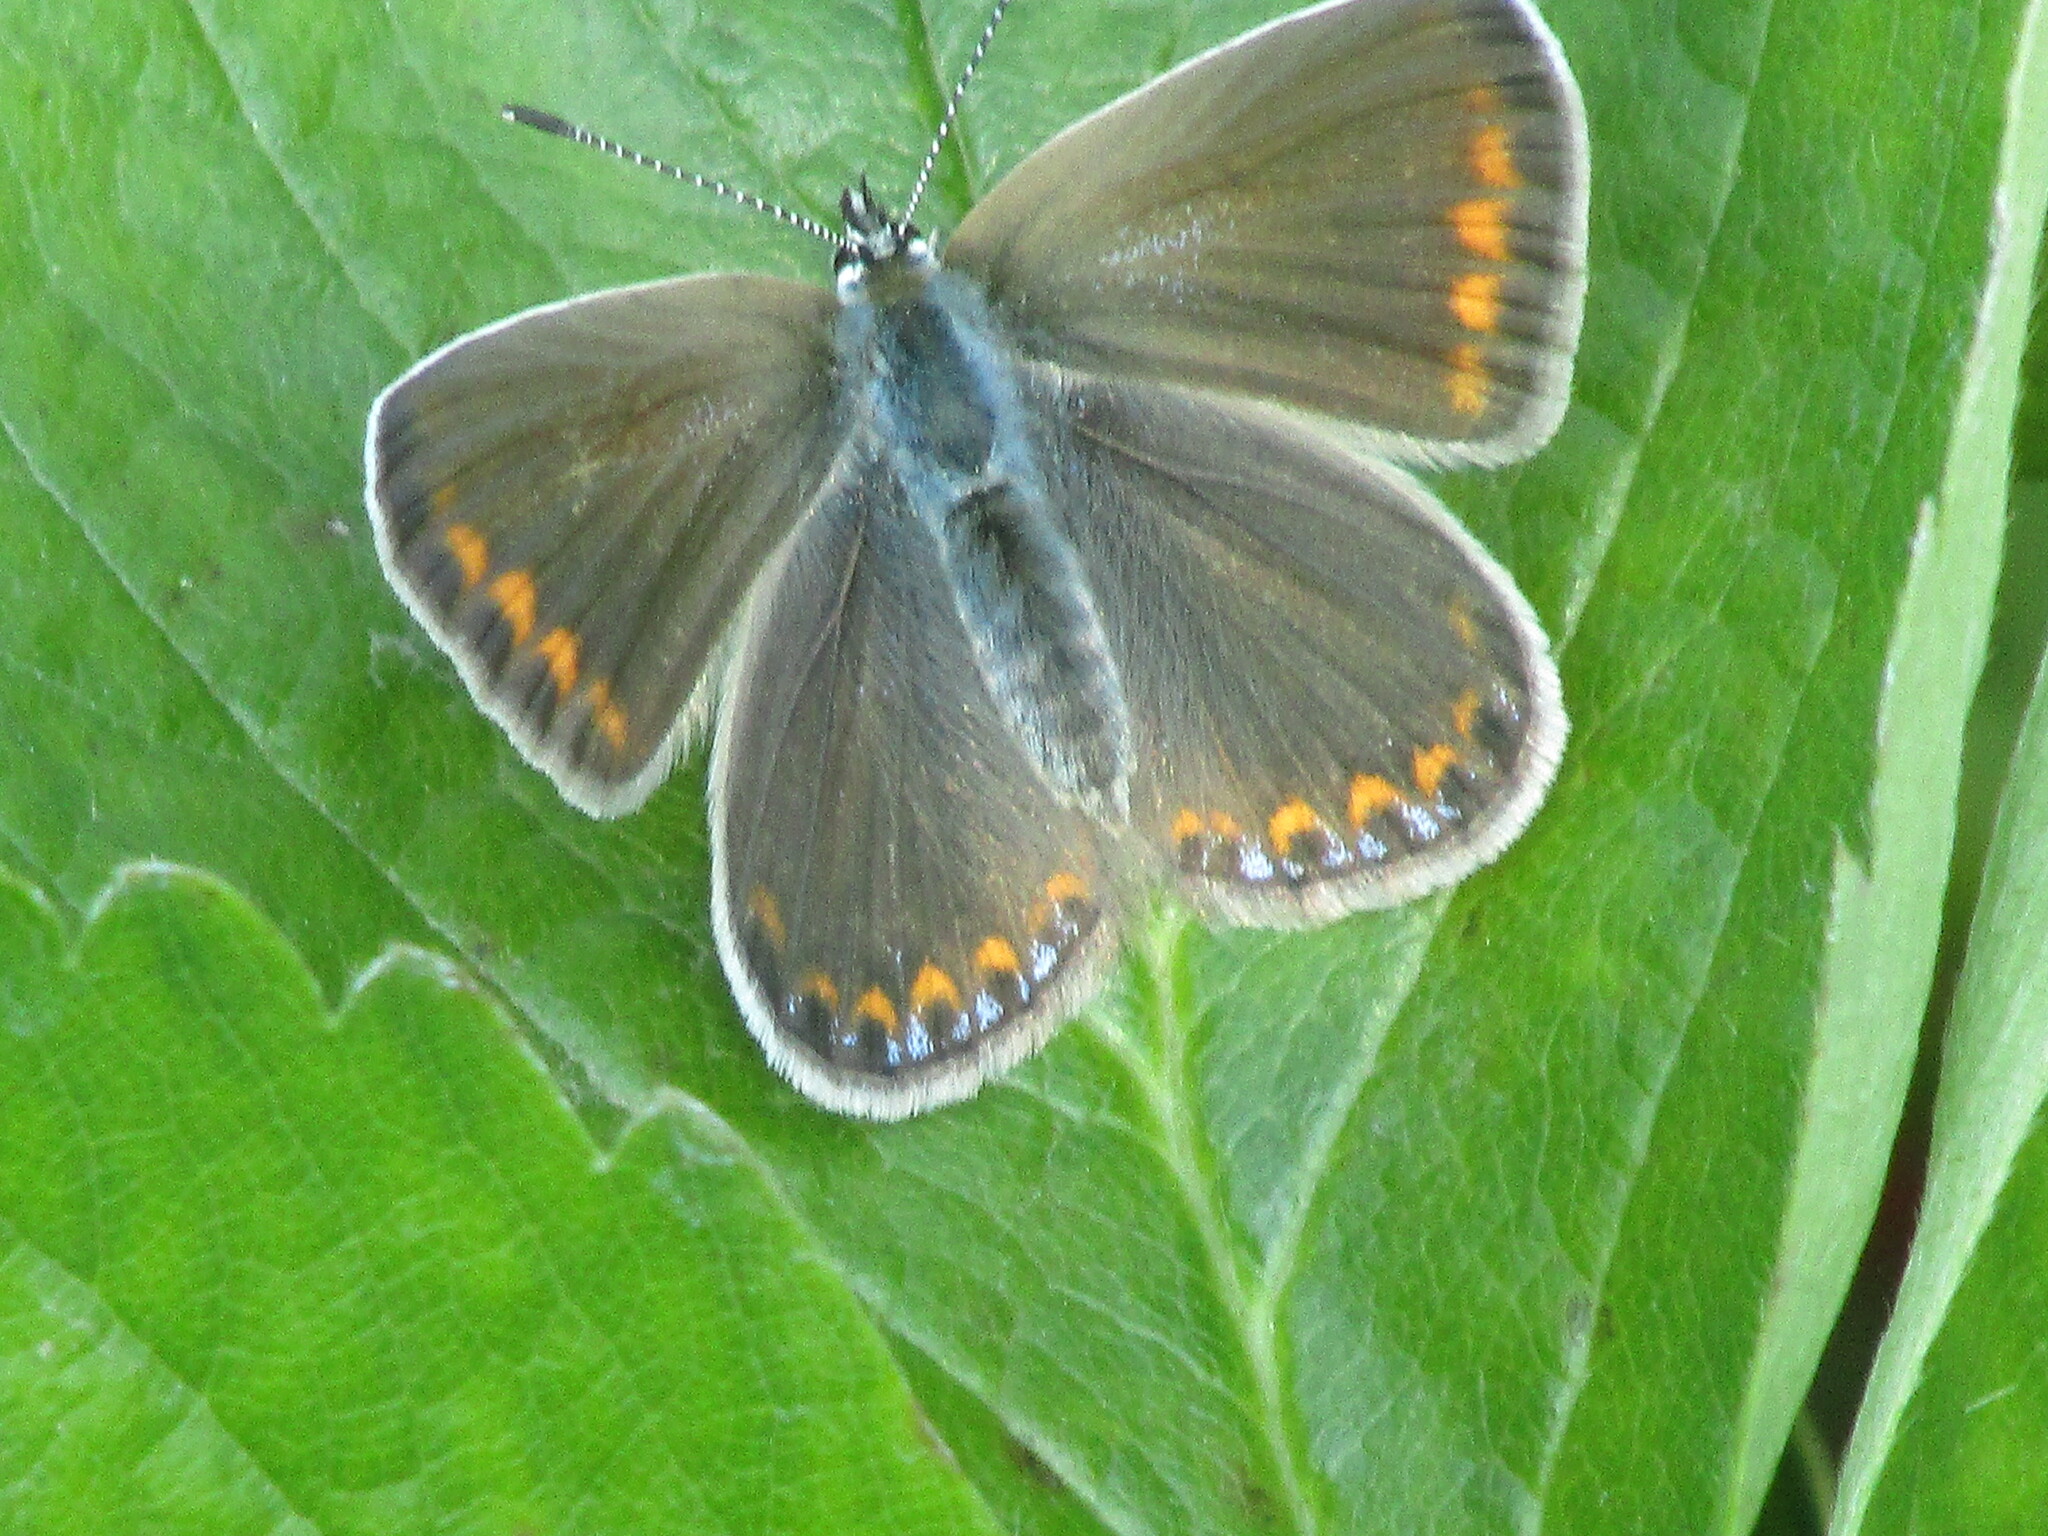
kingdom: Animalia
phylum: Arthropoda
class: Insecta
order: Lepidoptera
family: Lycaenidae
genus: Polyommatus
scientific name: Polyommatus icarus
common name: Common blue
